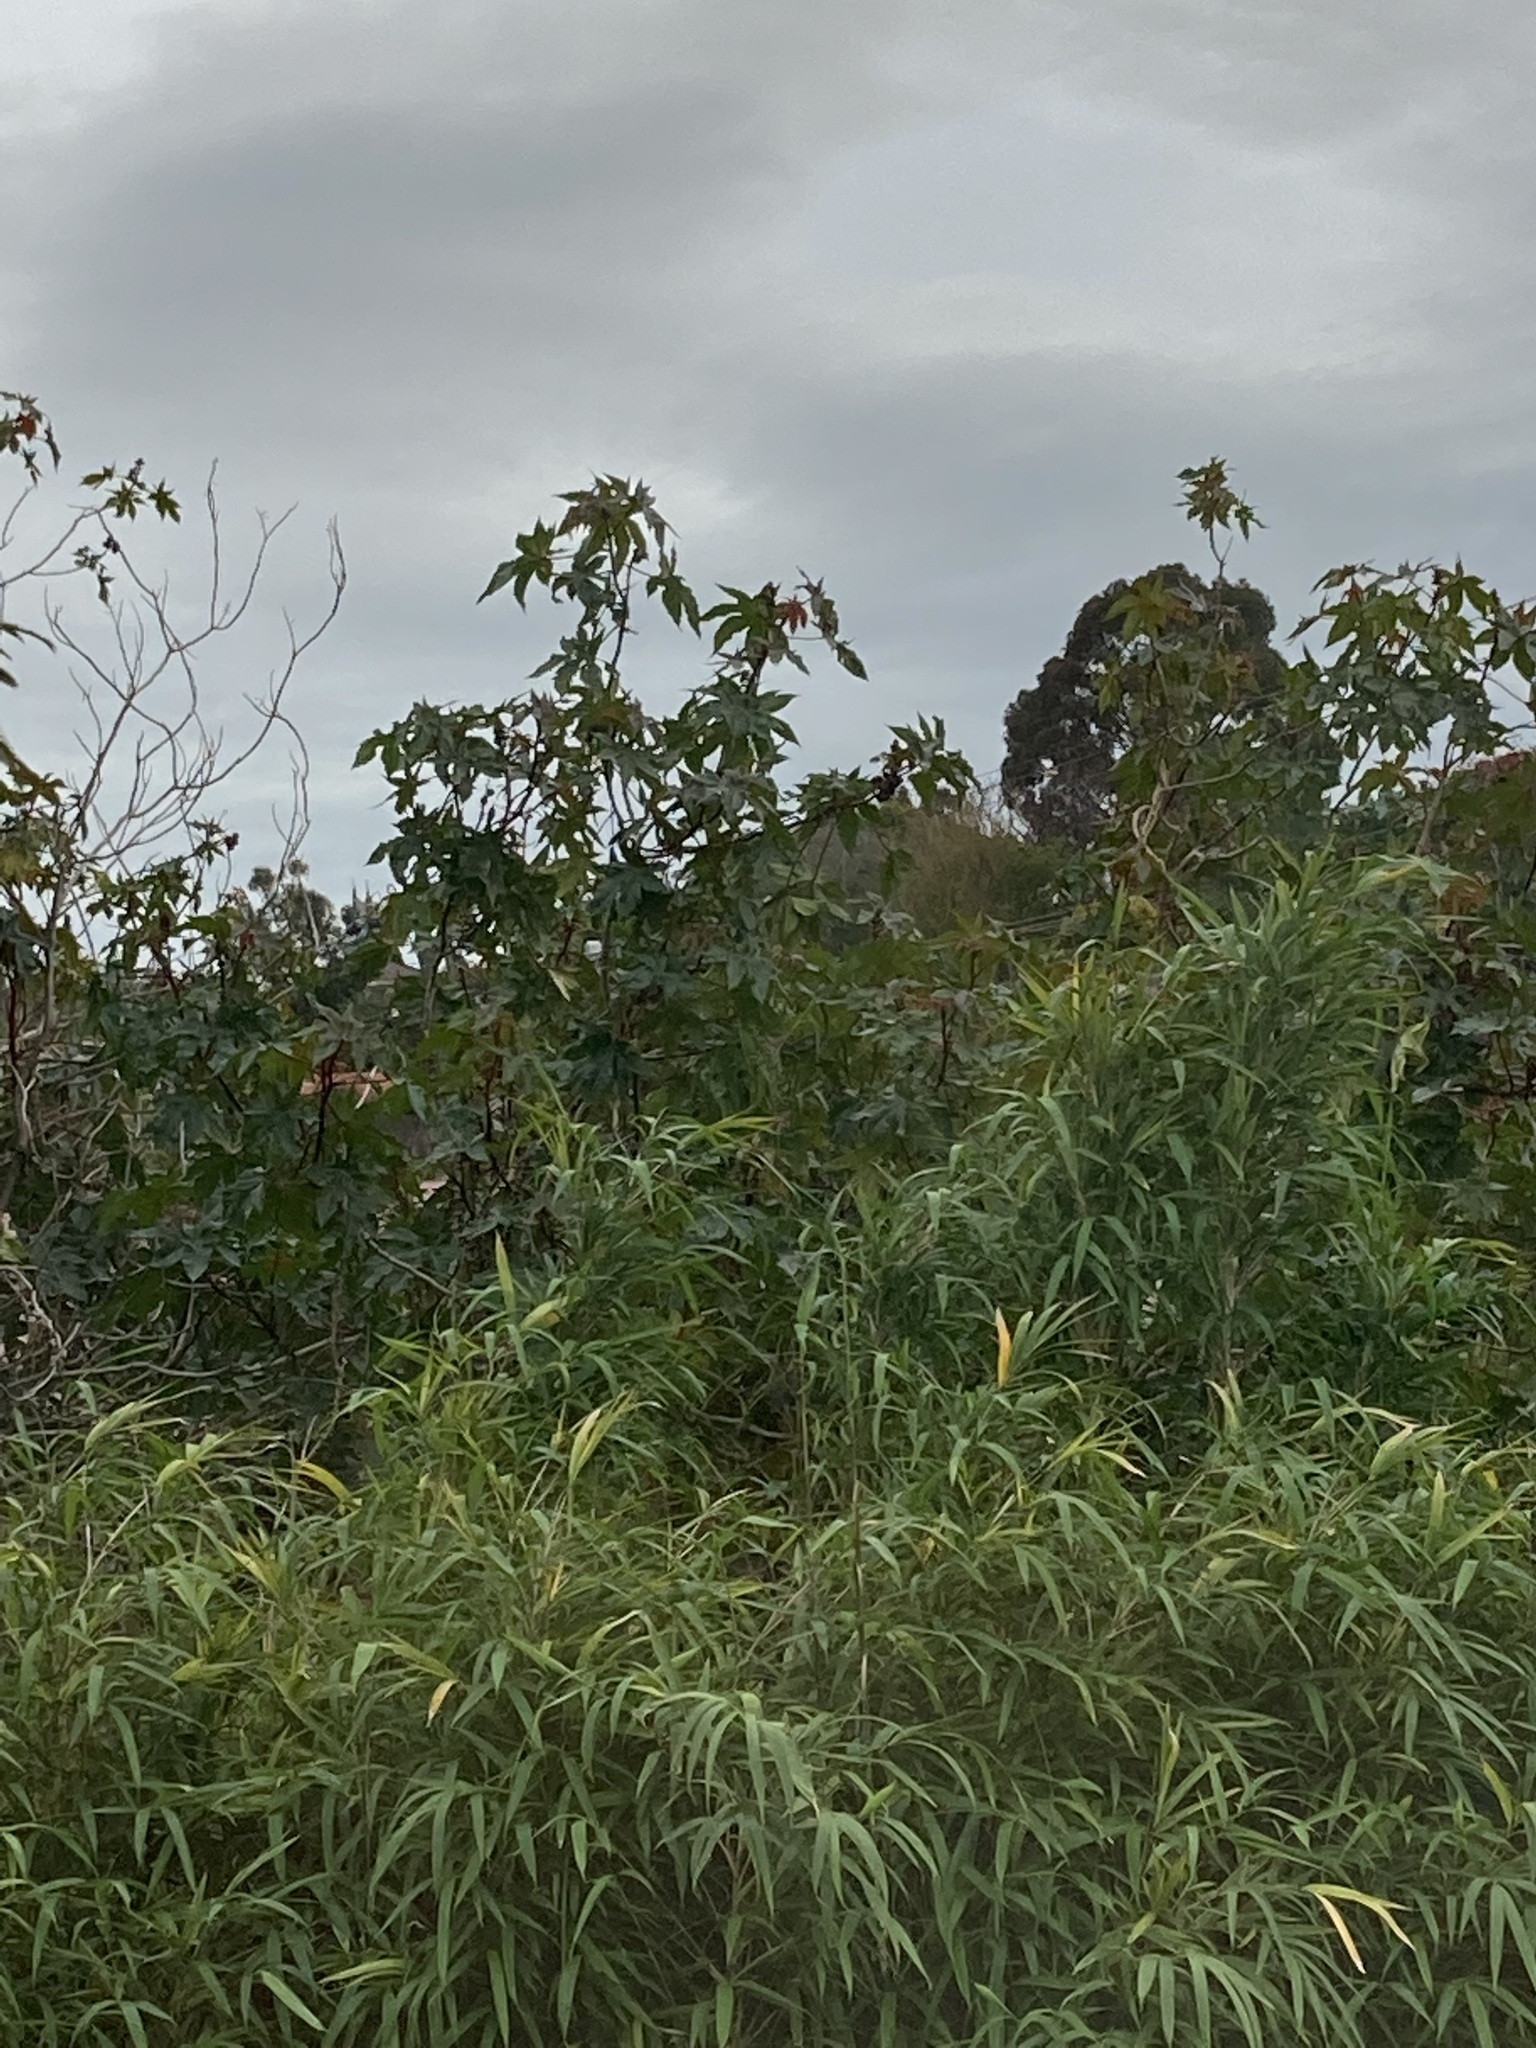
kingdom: Plantae
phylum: Tracheophyta
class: Magnoliopsida
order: Malpighiales
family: Euphorbiaceae
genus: Ricinus
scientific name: Ricinus communis
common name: Castor-oil-plant
